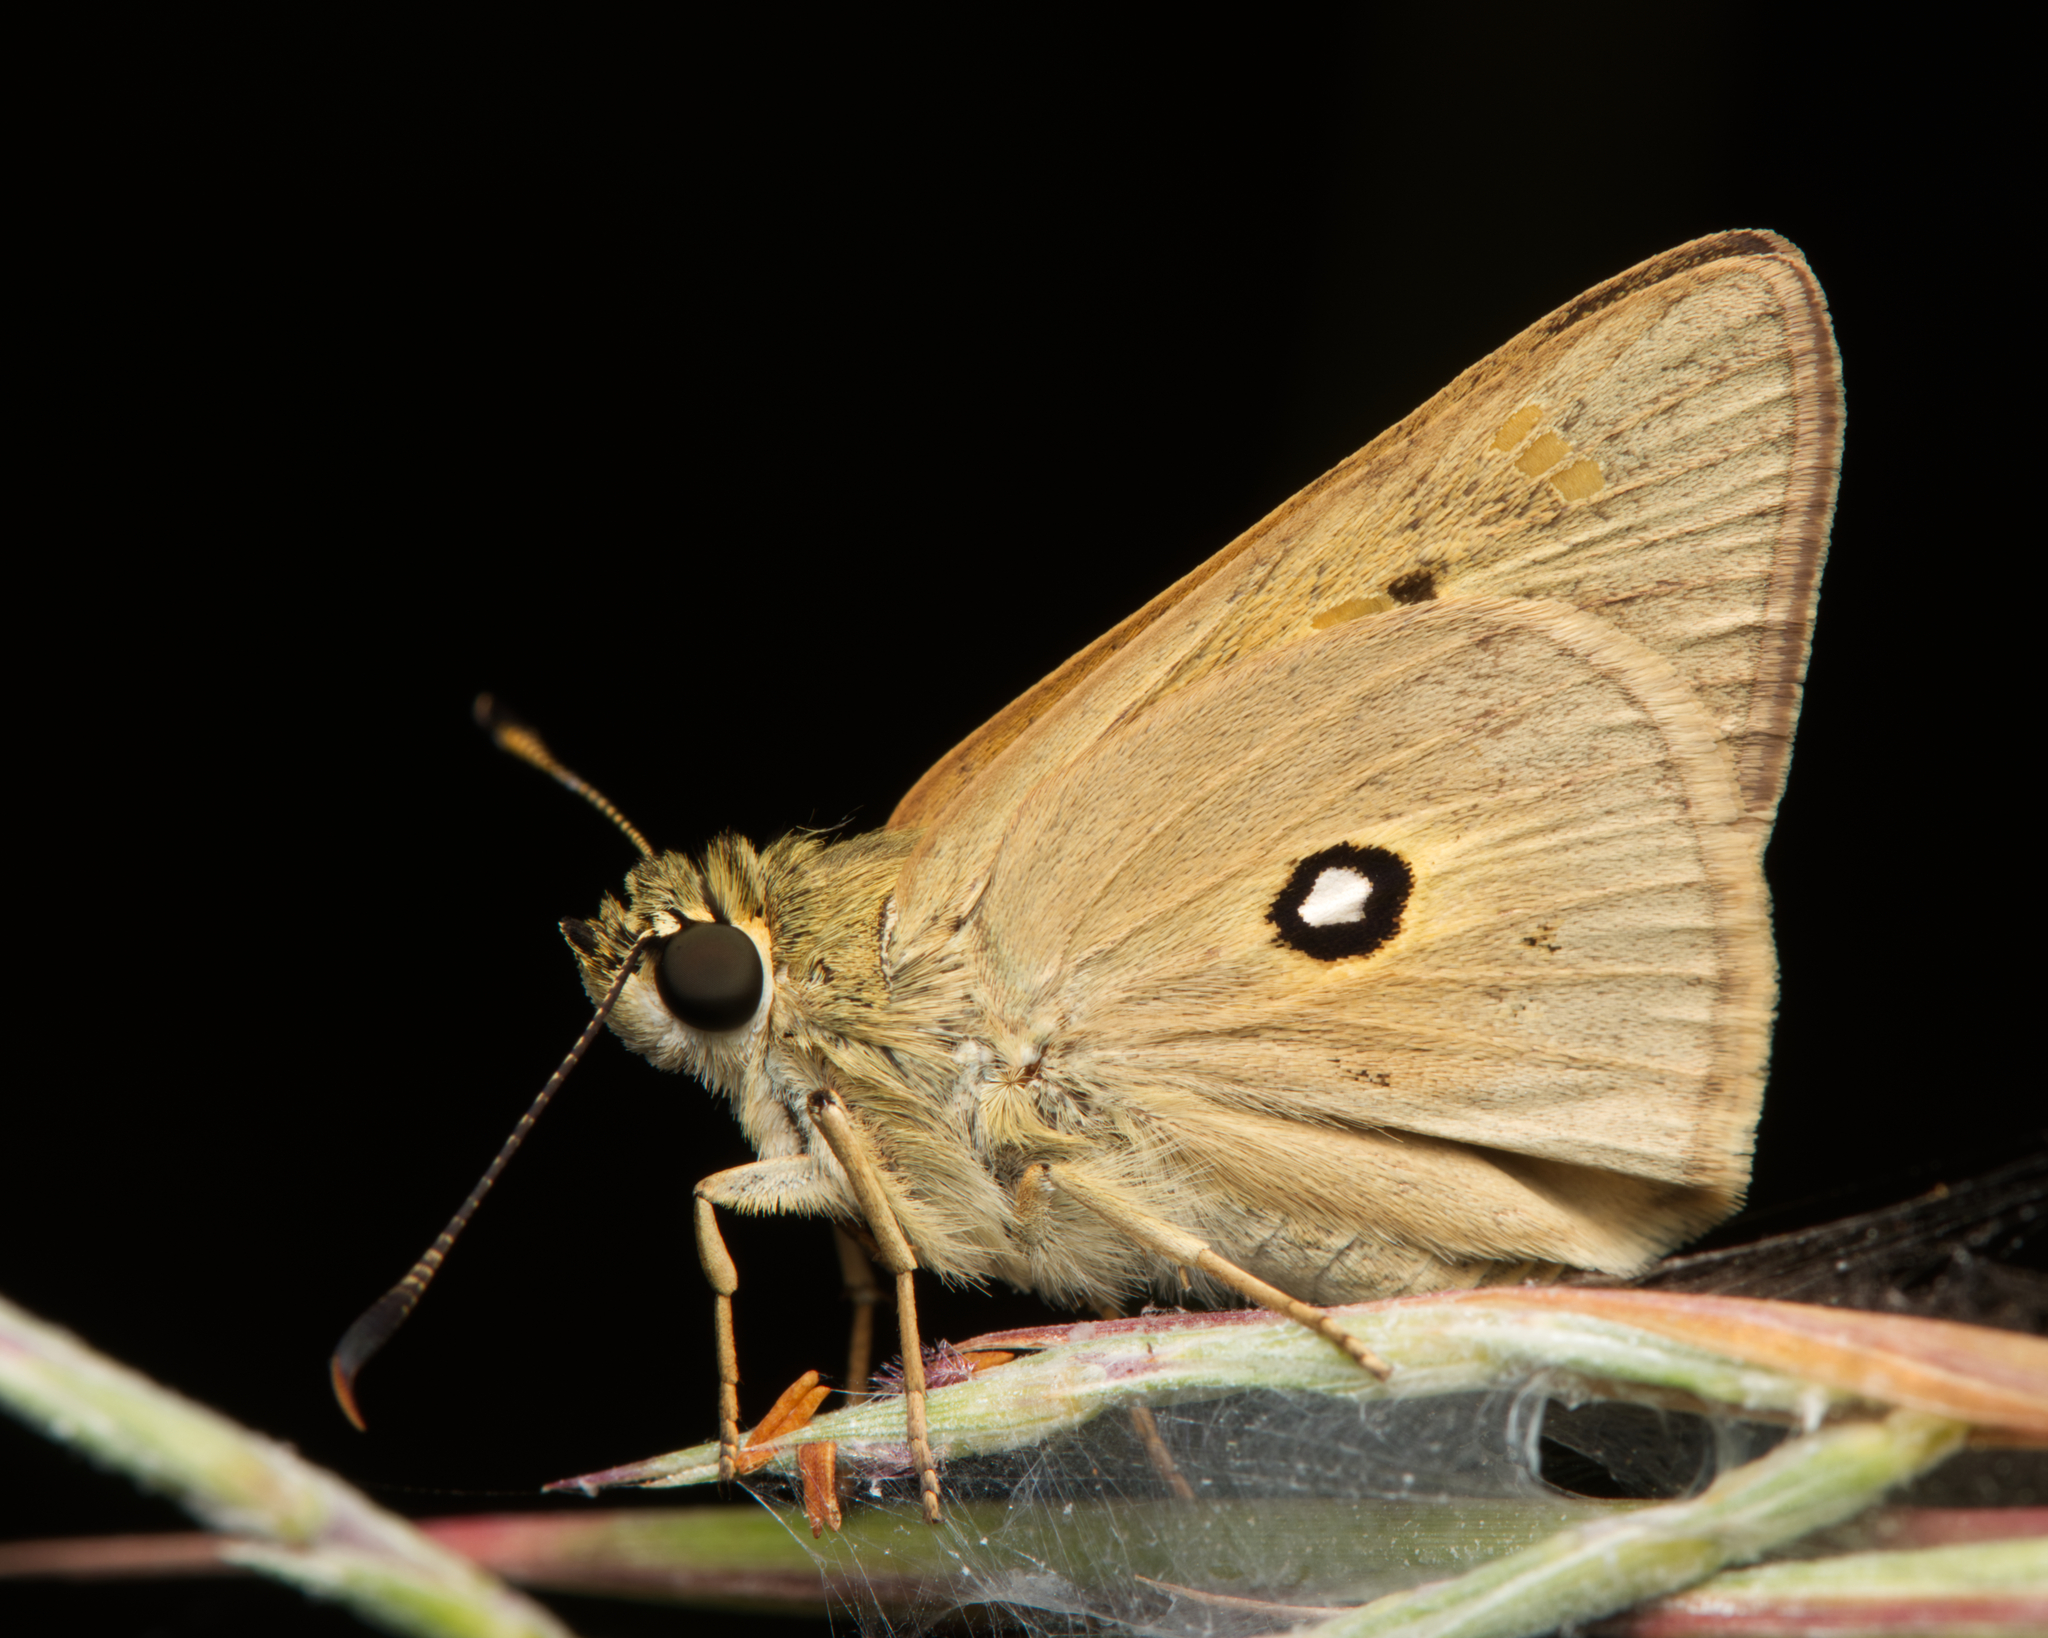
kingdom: Animalia
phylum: Arthropoda
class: Insecta
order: Lepidoptera
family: Hesperiidae
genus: Trapezites
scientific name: Trapezites petalia
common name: Black-ringed ochre
